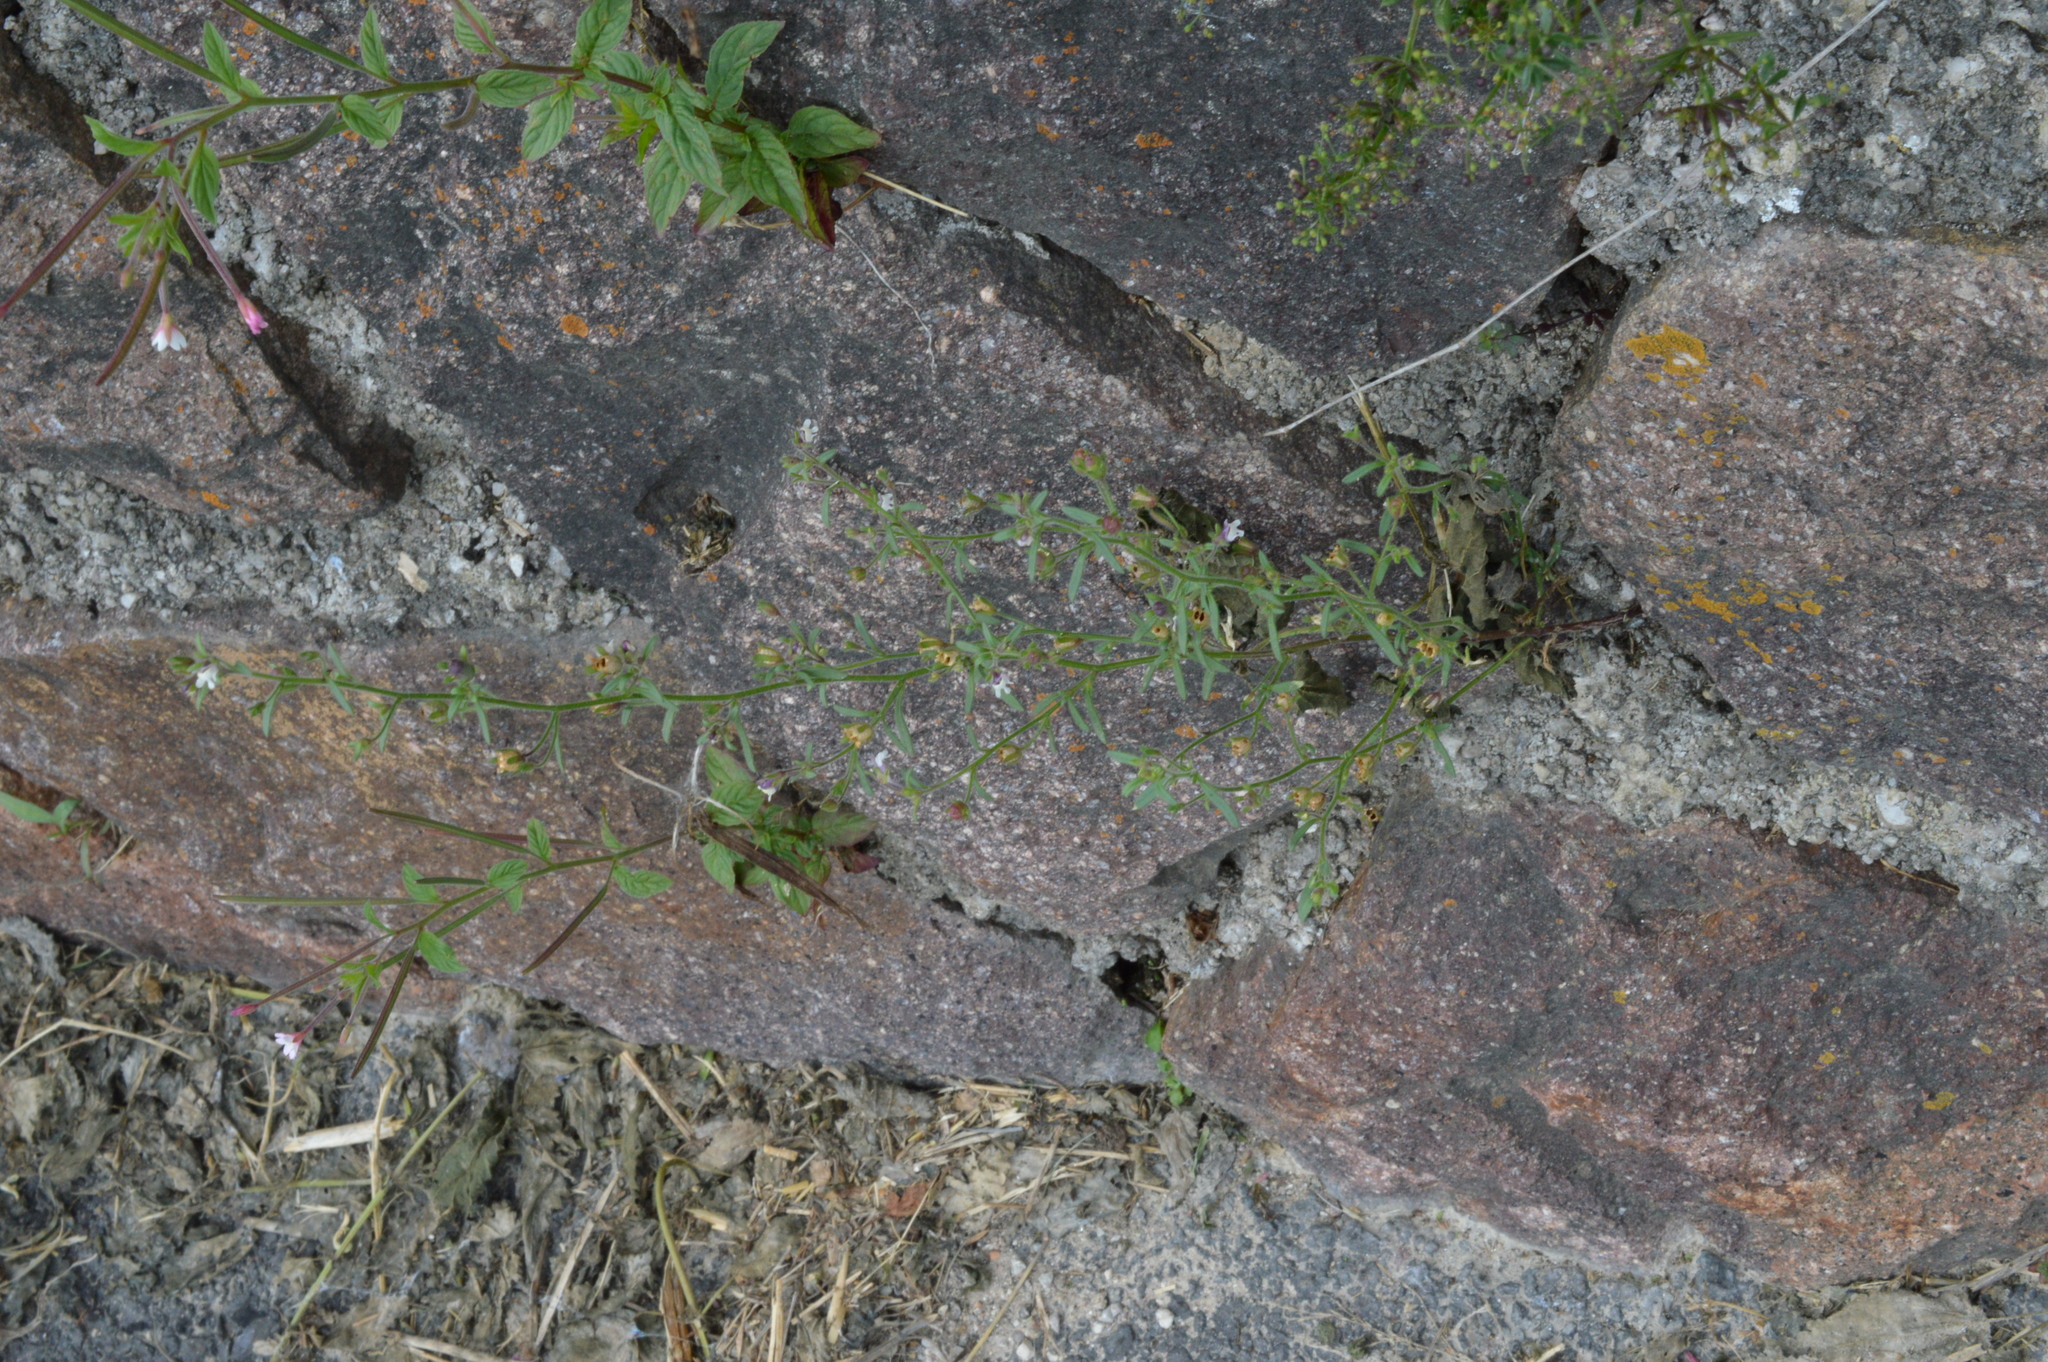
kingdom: Plantae
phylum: Tracheophyta
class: Magnoliopsida
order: Lamiales
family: Plantaginaceae
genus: Chaenorhinum
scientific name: Chaenorhinum minus
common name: Dwarf snapdragon
